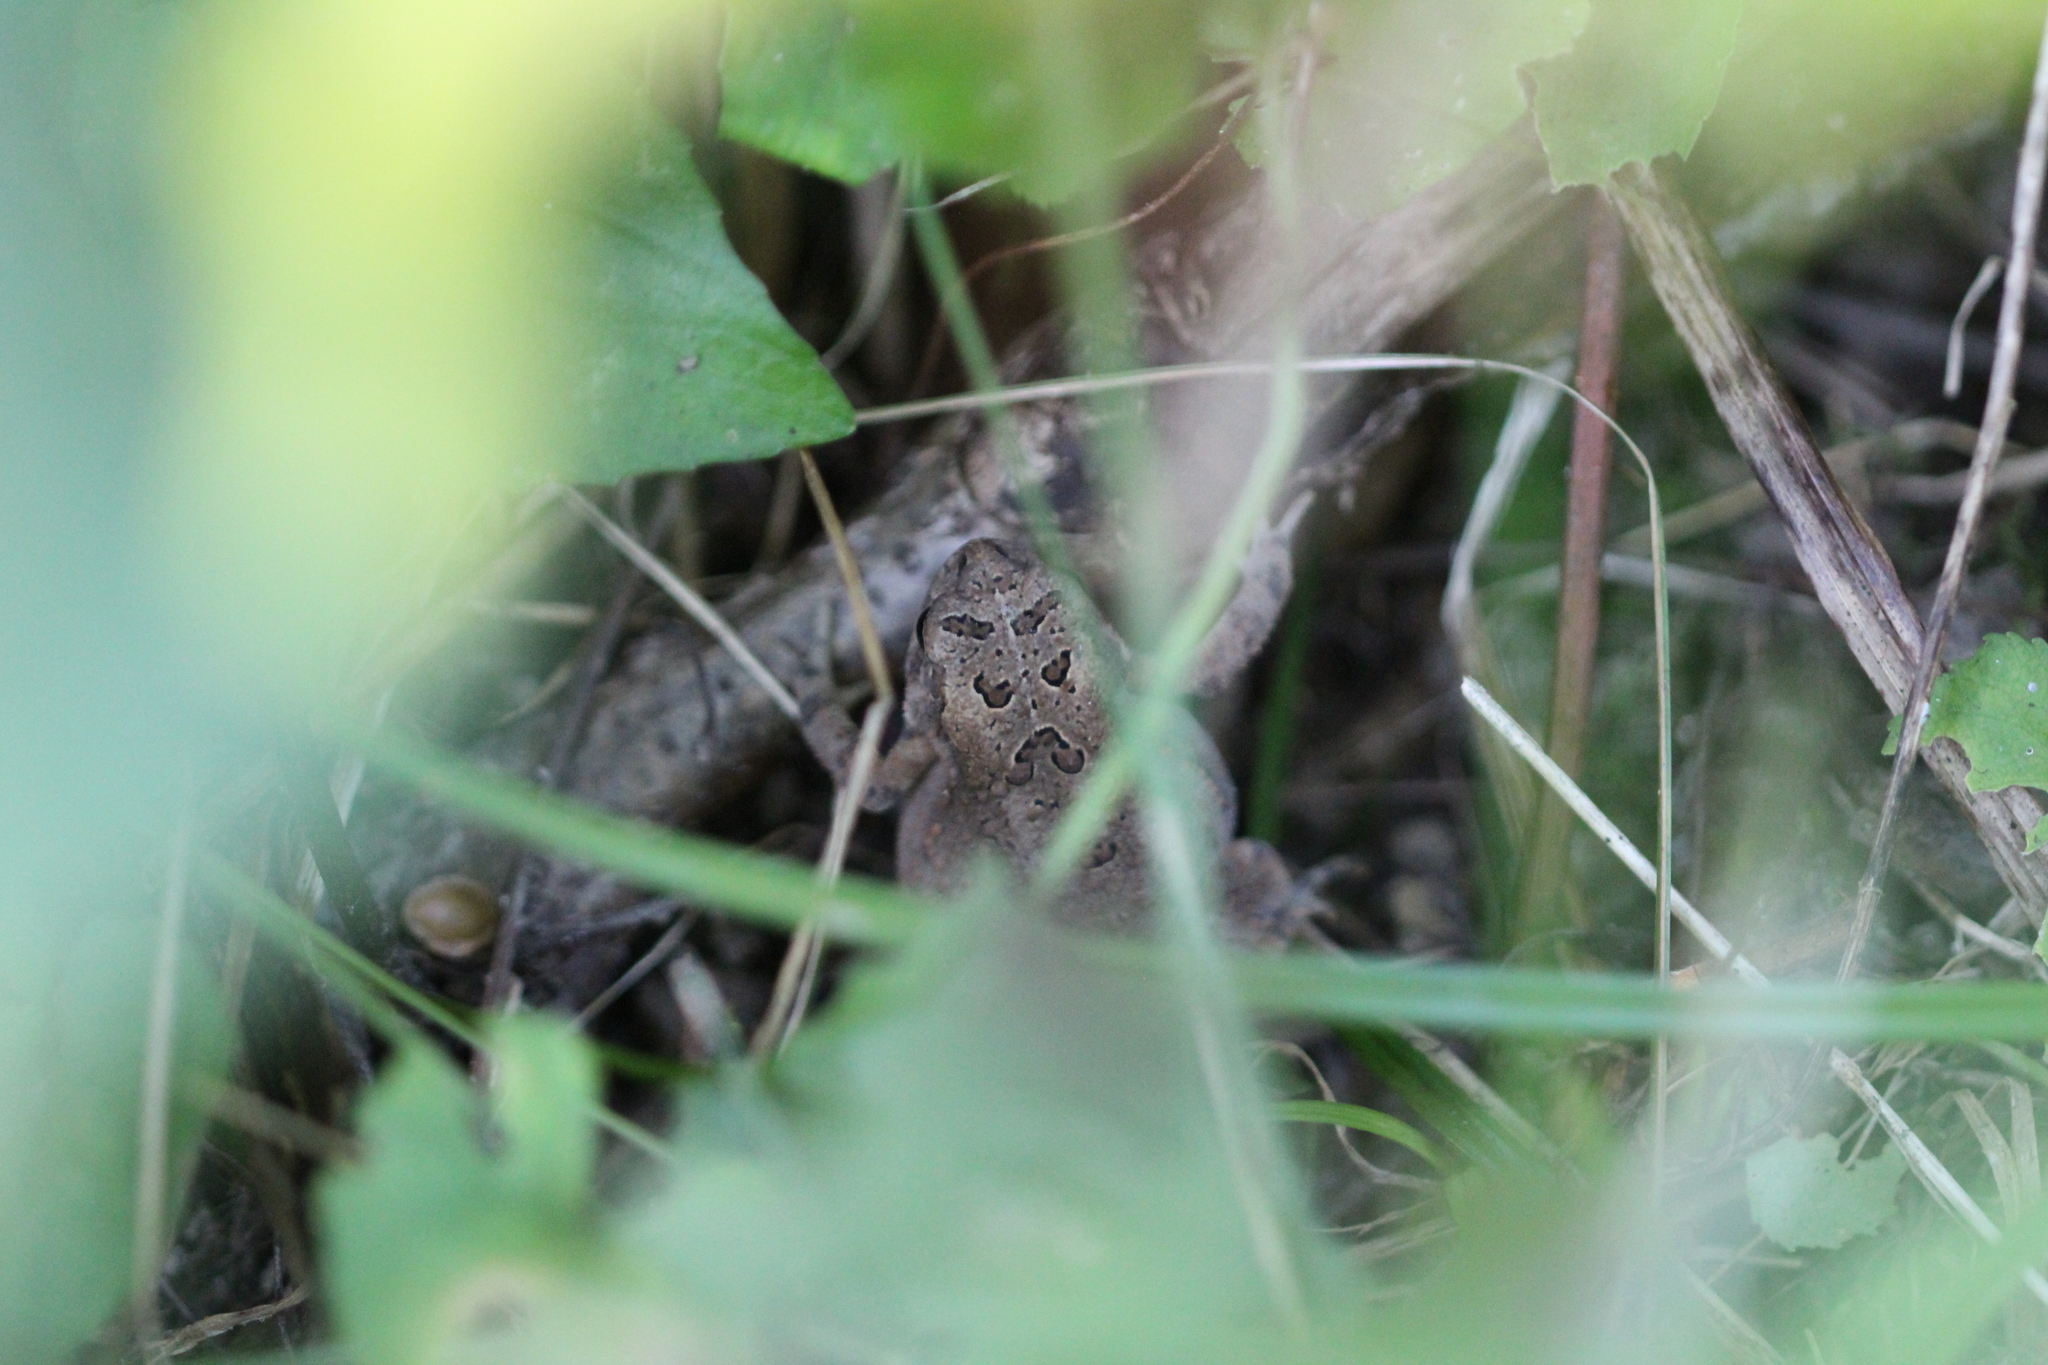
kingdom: Animalia
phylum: Chordata
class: Amphibia
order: Anura
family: Bufonidae
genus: Anaxyrus
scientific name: Anaxyrus americanus
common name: American toad
